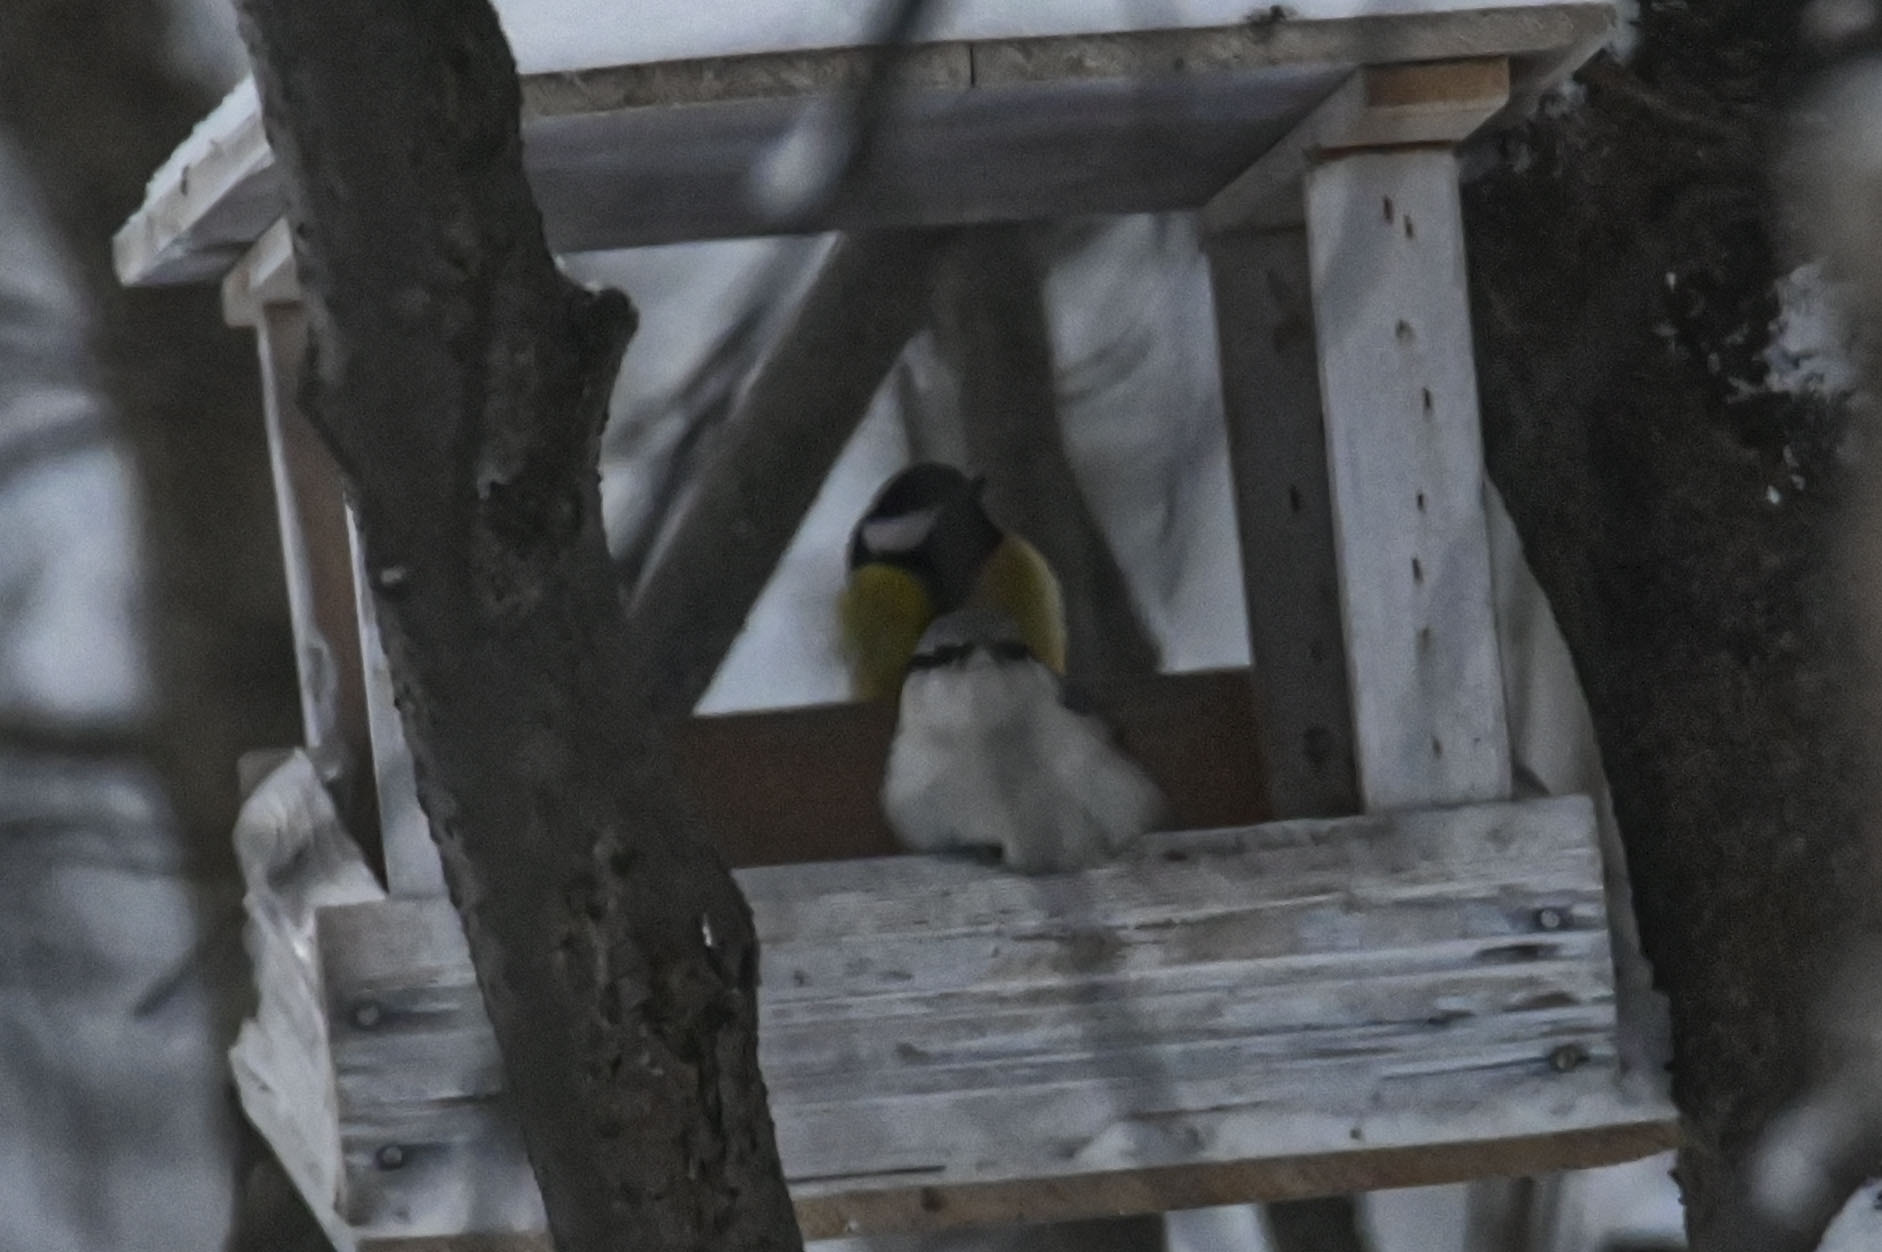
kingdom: Animalia
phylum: Chordata
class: Aves
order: Passeriformes
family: Paridae
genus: Parus
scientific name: Parus major
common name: Great tit
